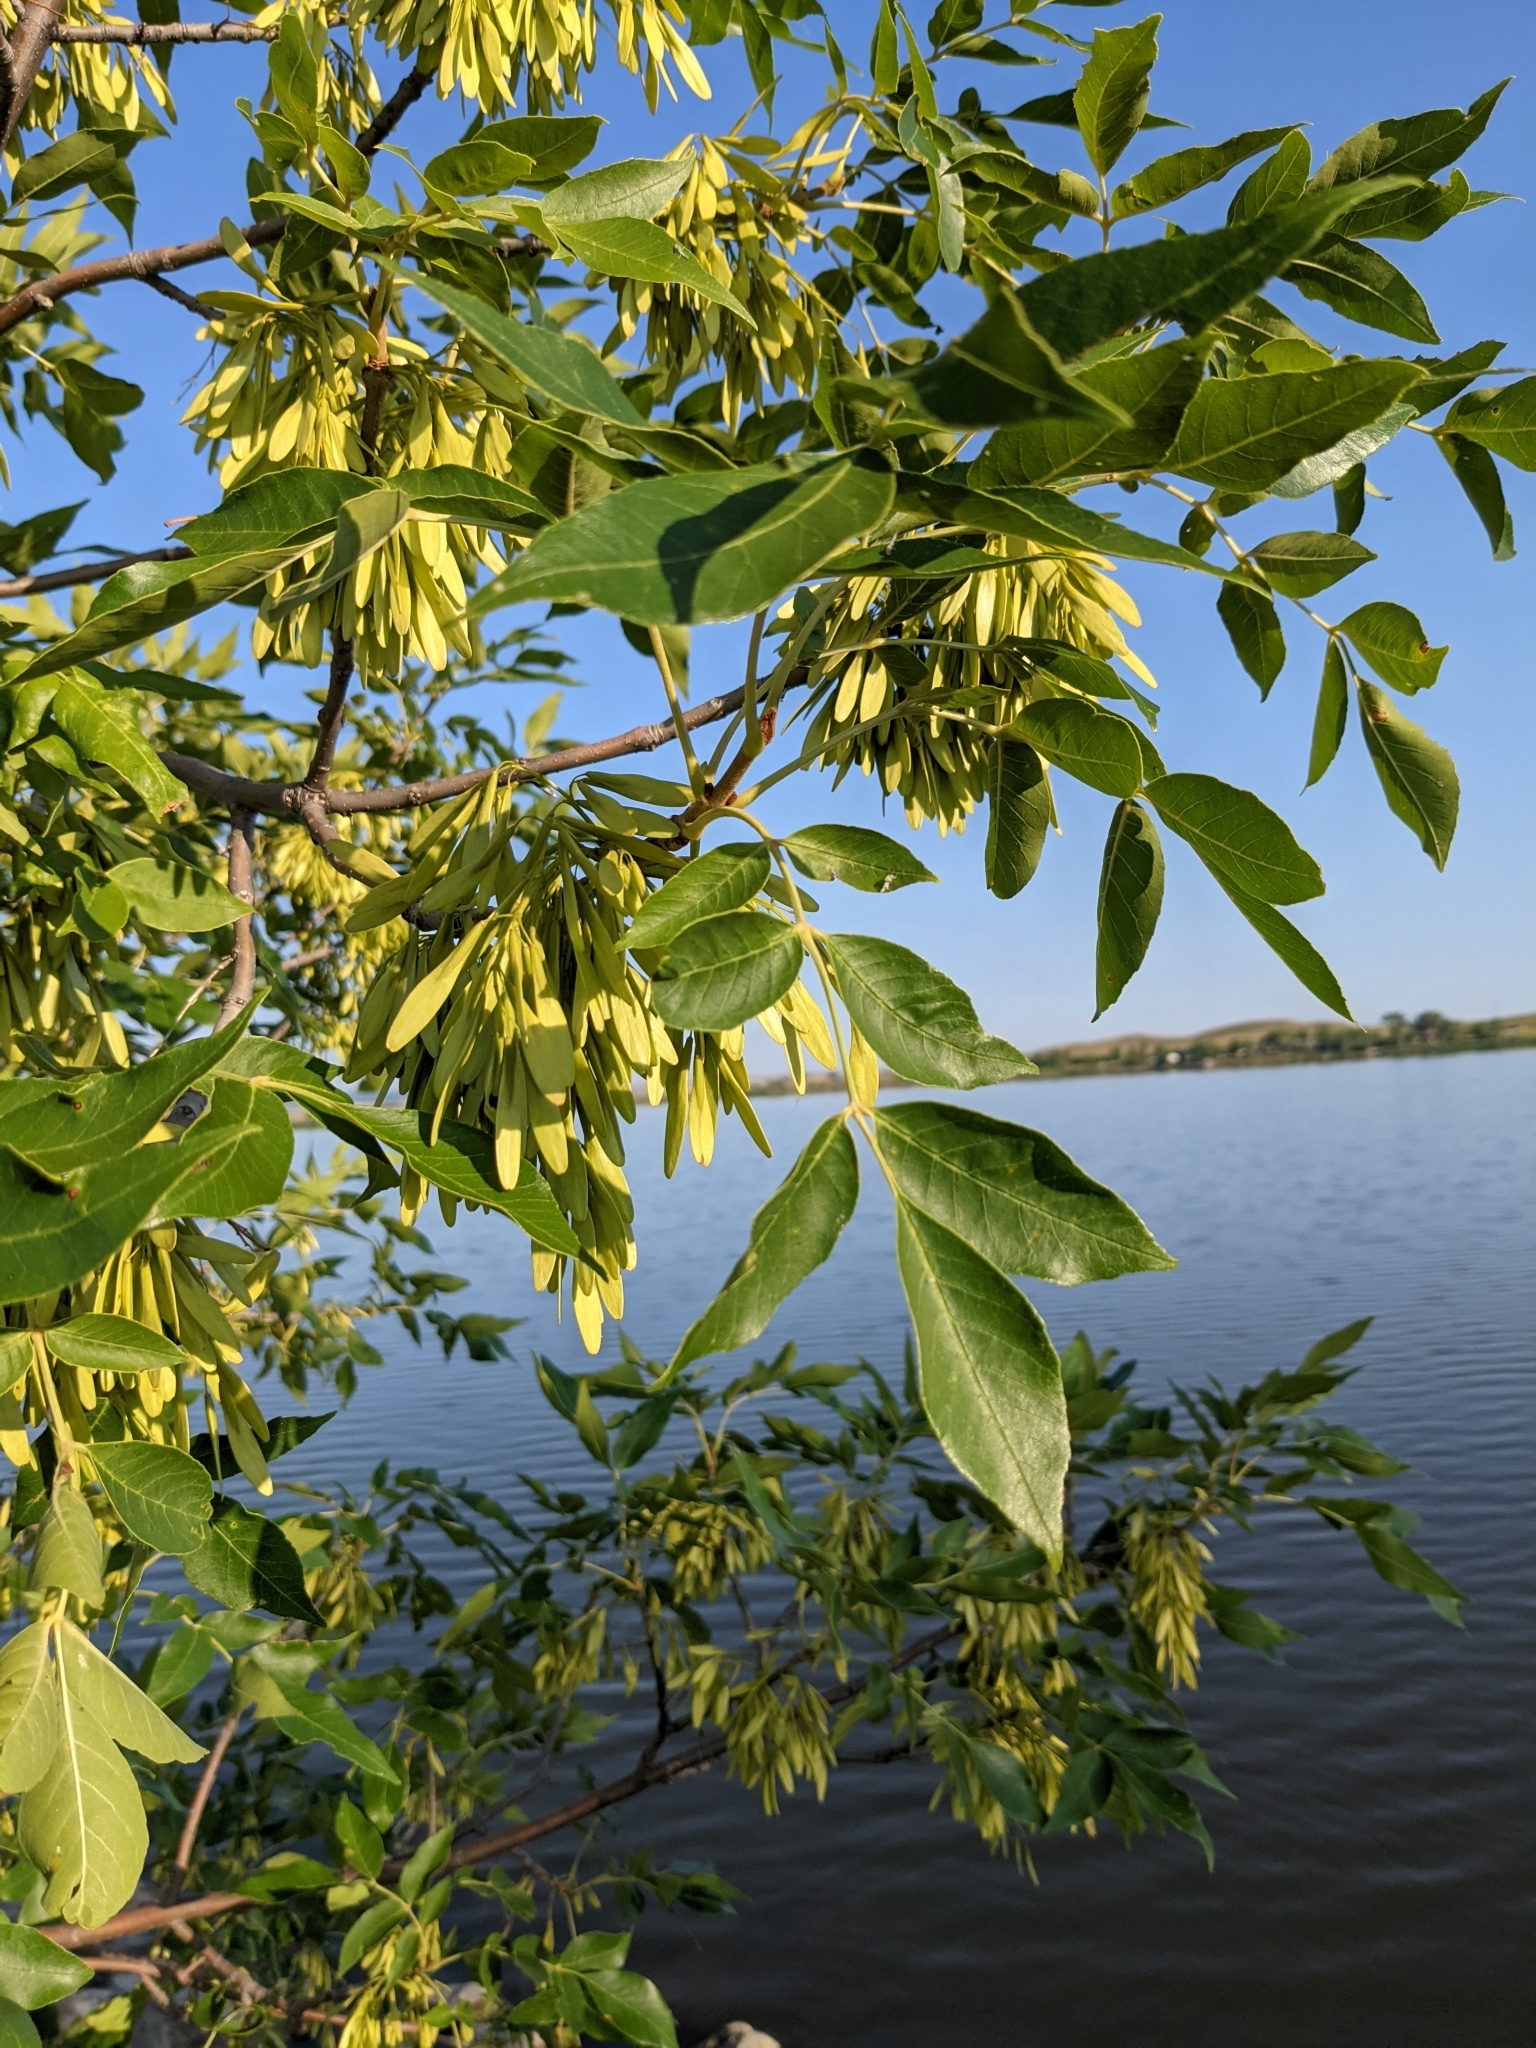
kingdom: Plantae
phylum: Tracheophyta
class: Magnoliopsida
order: Lamiales
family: Oleaceae
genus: Fraxinus
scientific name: Fraxinus pennsylvanica
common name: Green ash
